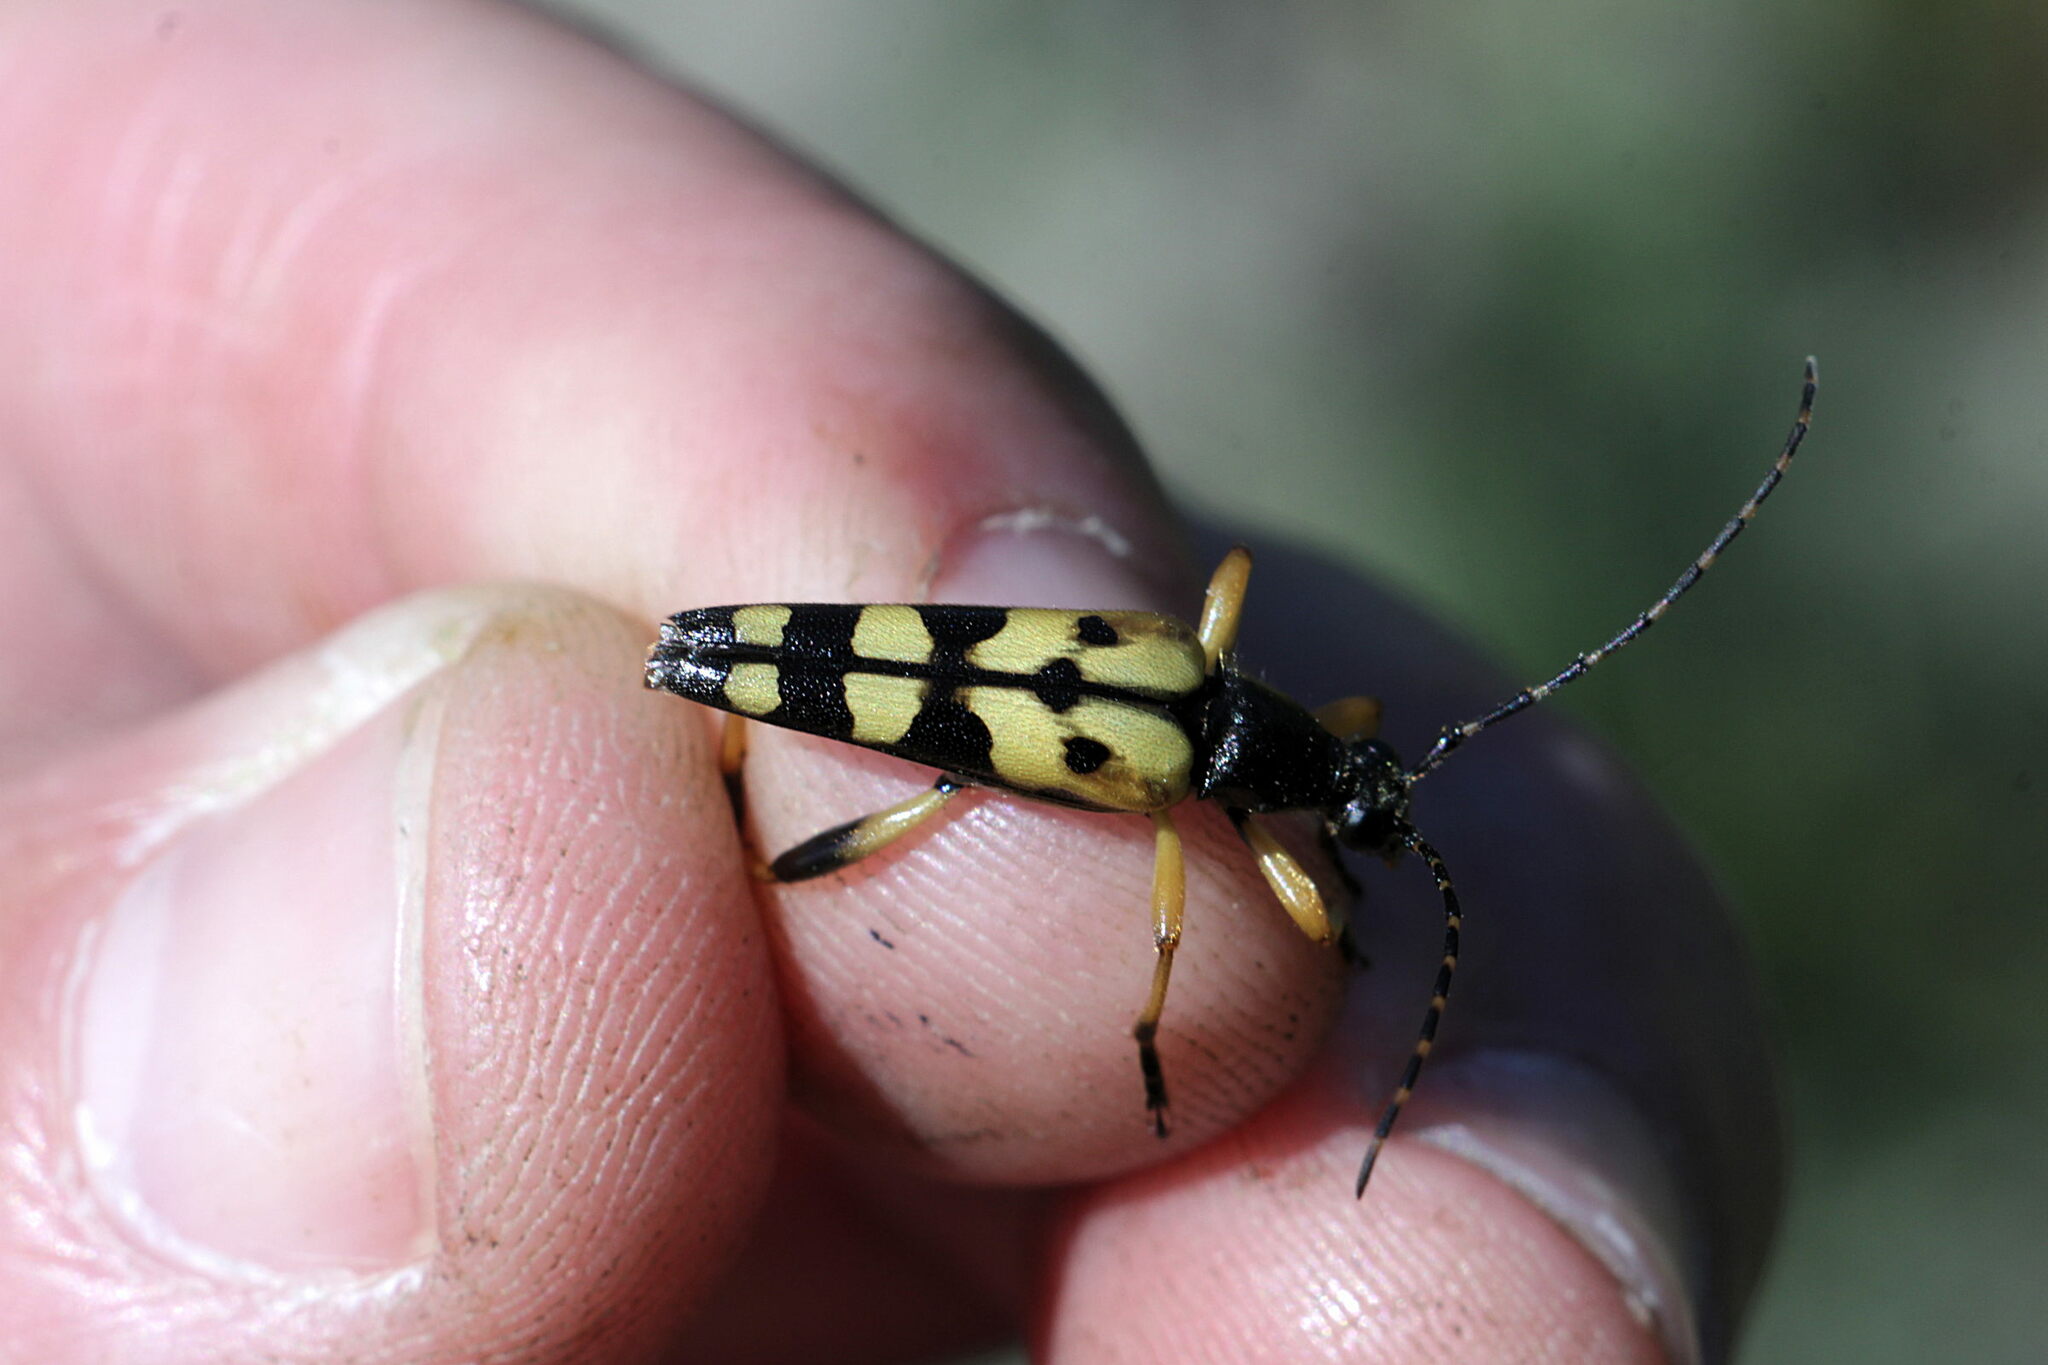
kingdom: Animalia
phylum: Arthropoda
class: Insecta
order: Coleoptera
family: Cerambycidae
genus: Rutpela
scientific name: Rutpela maculata
